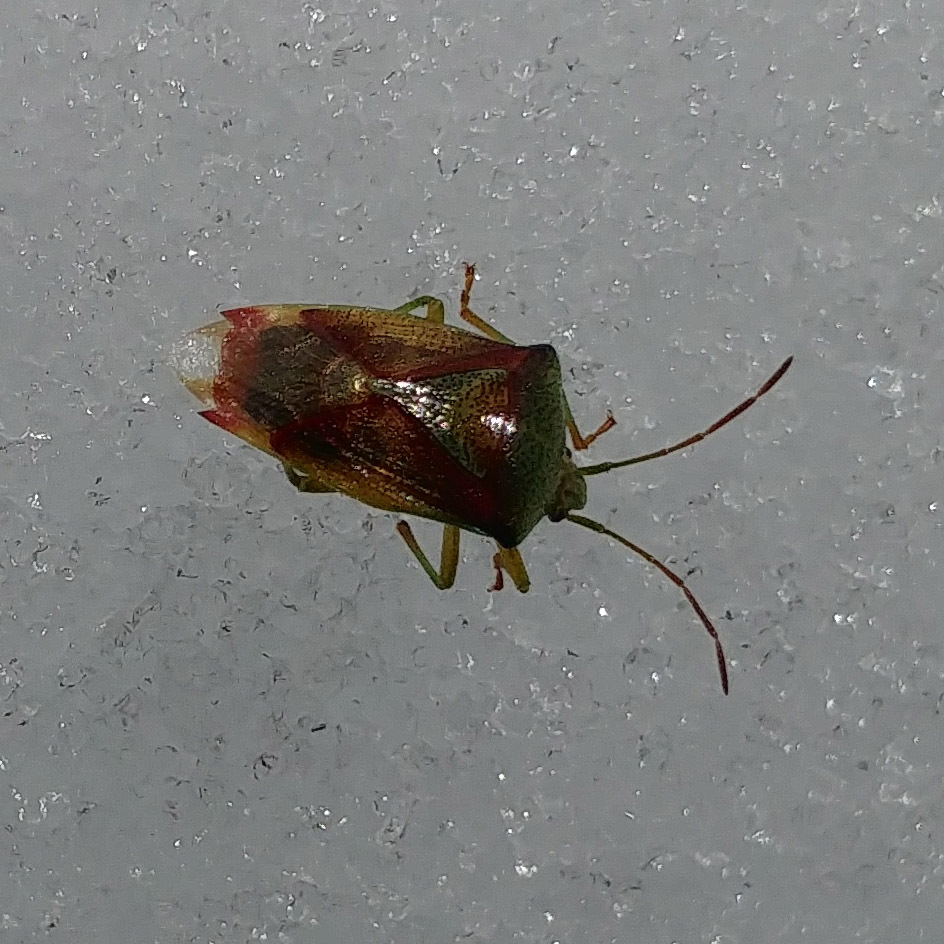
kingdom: Animalia
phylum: Arthropoda
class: Insecta
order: Hemiptera
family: Acanthosomatidae
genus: Elasmostethus
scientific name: Elasmostethus interstinctus
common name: Birch shieldbug
